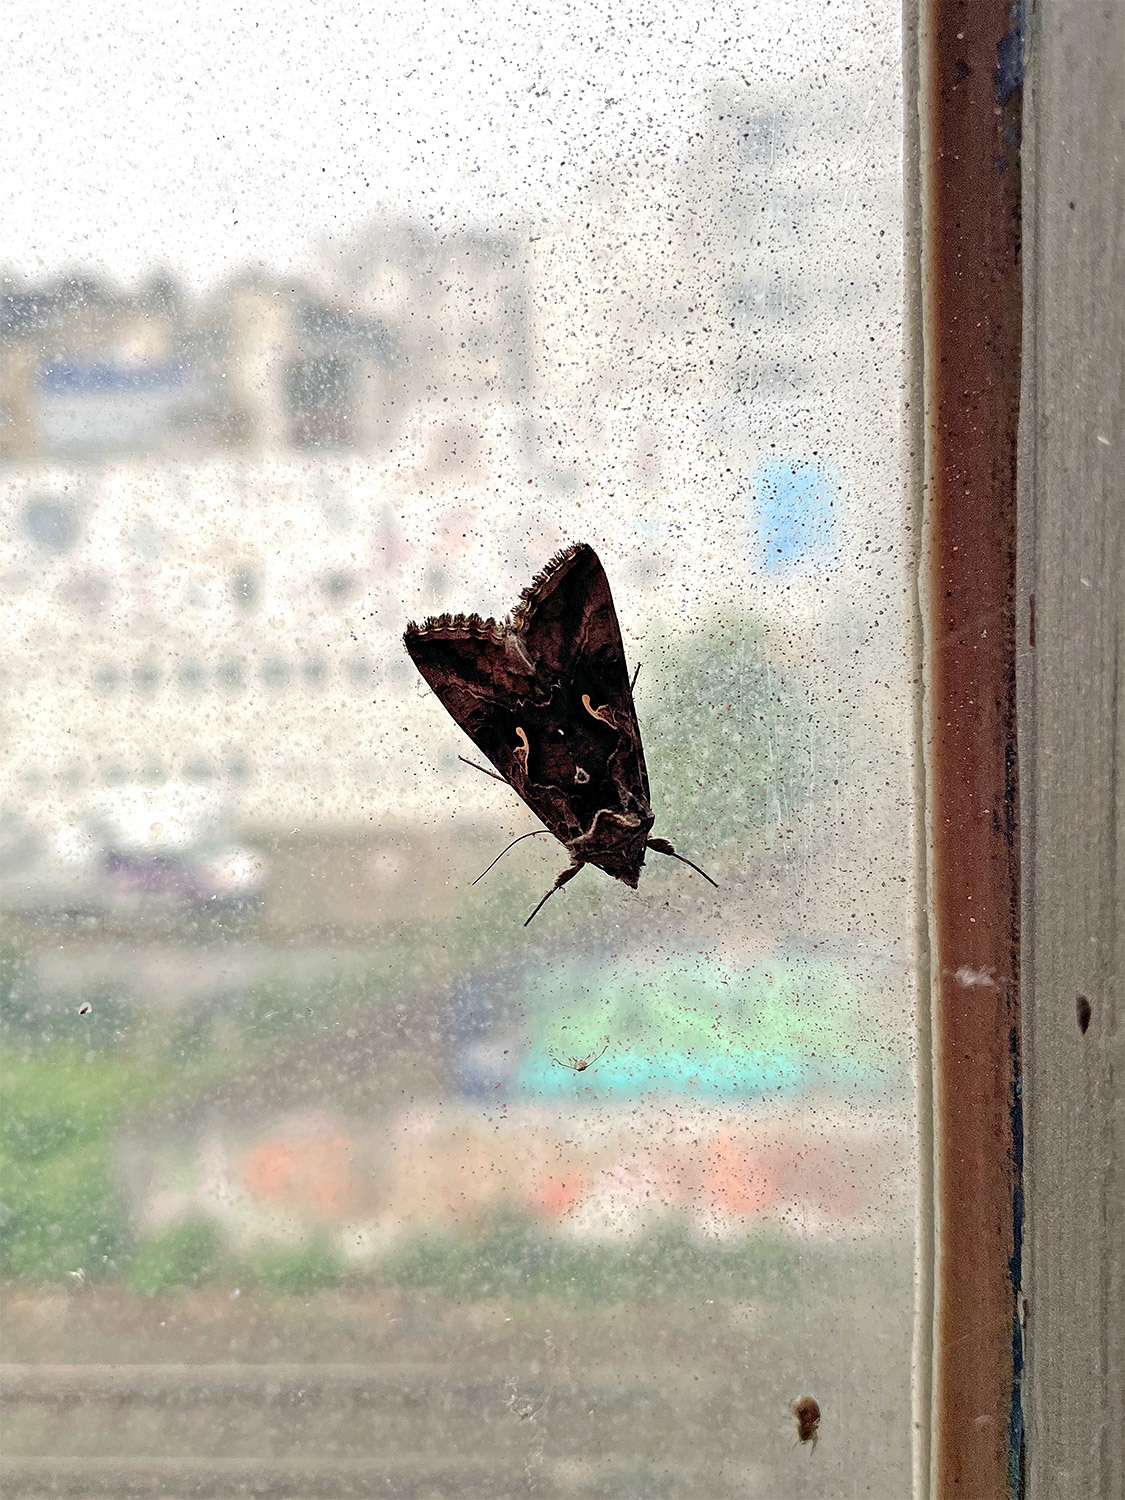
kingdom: Animalia
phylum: Arthropoda
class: Insecta
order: Lepidoptera
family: Noctuidae
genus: Autographa
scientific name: Autographa gamma
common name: Silver y
